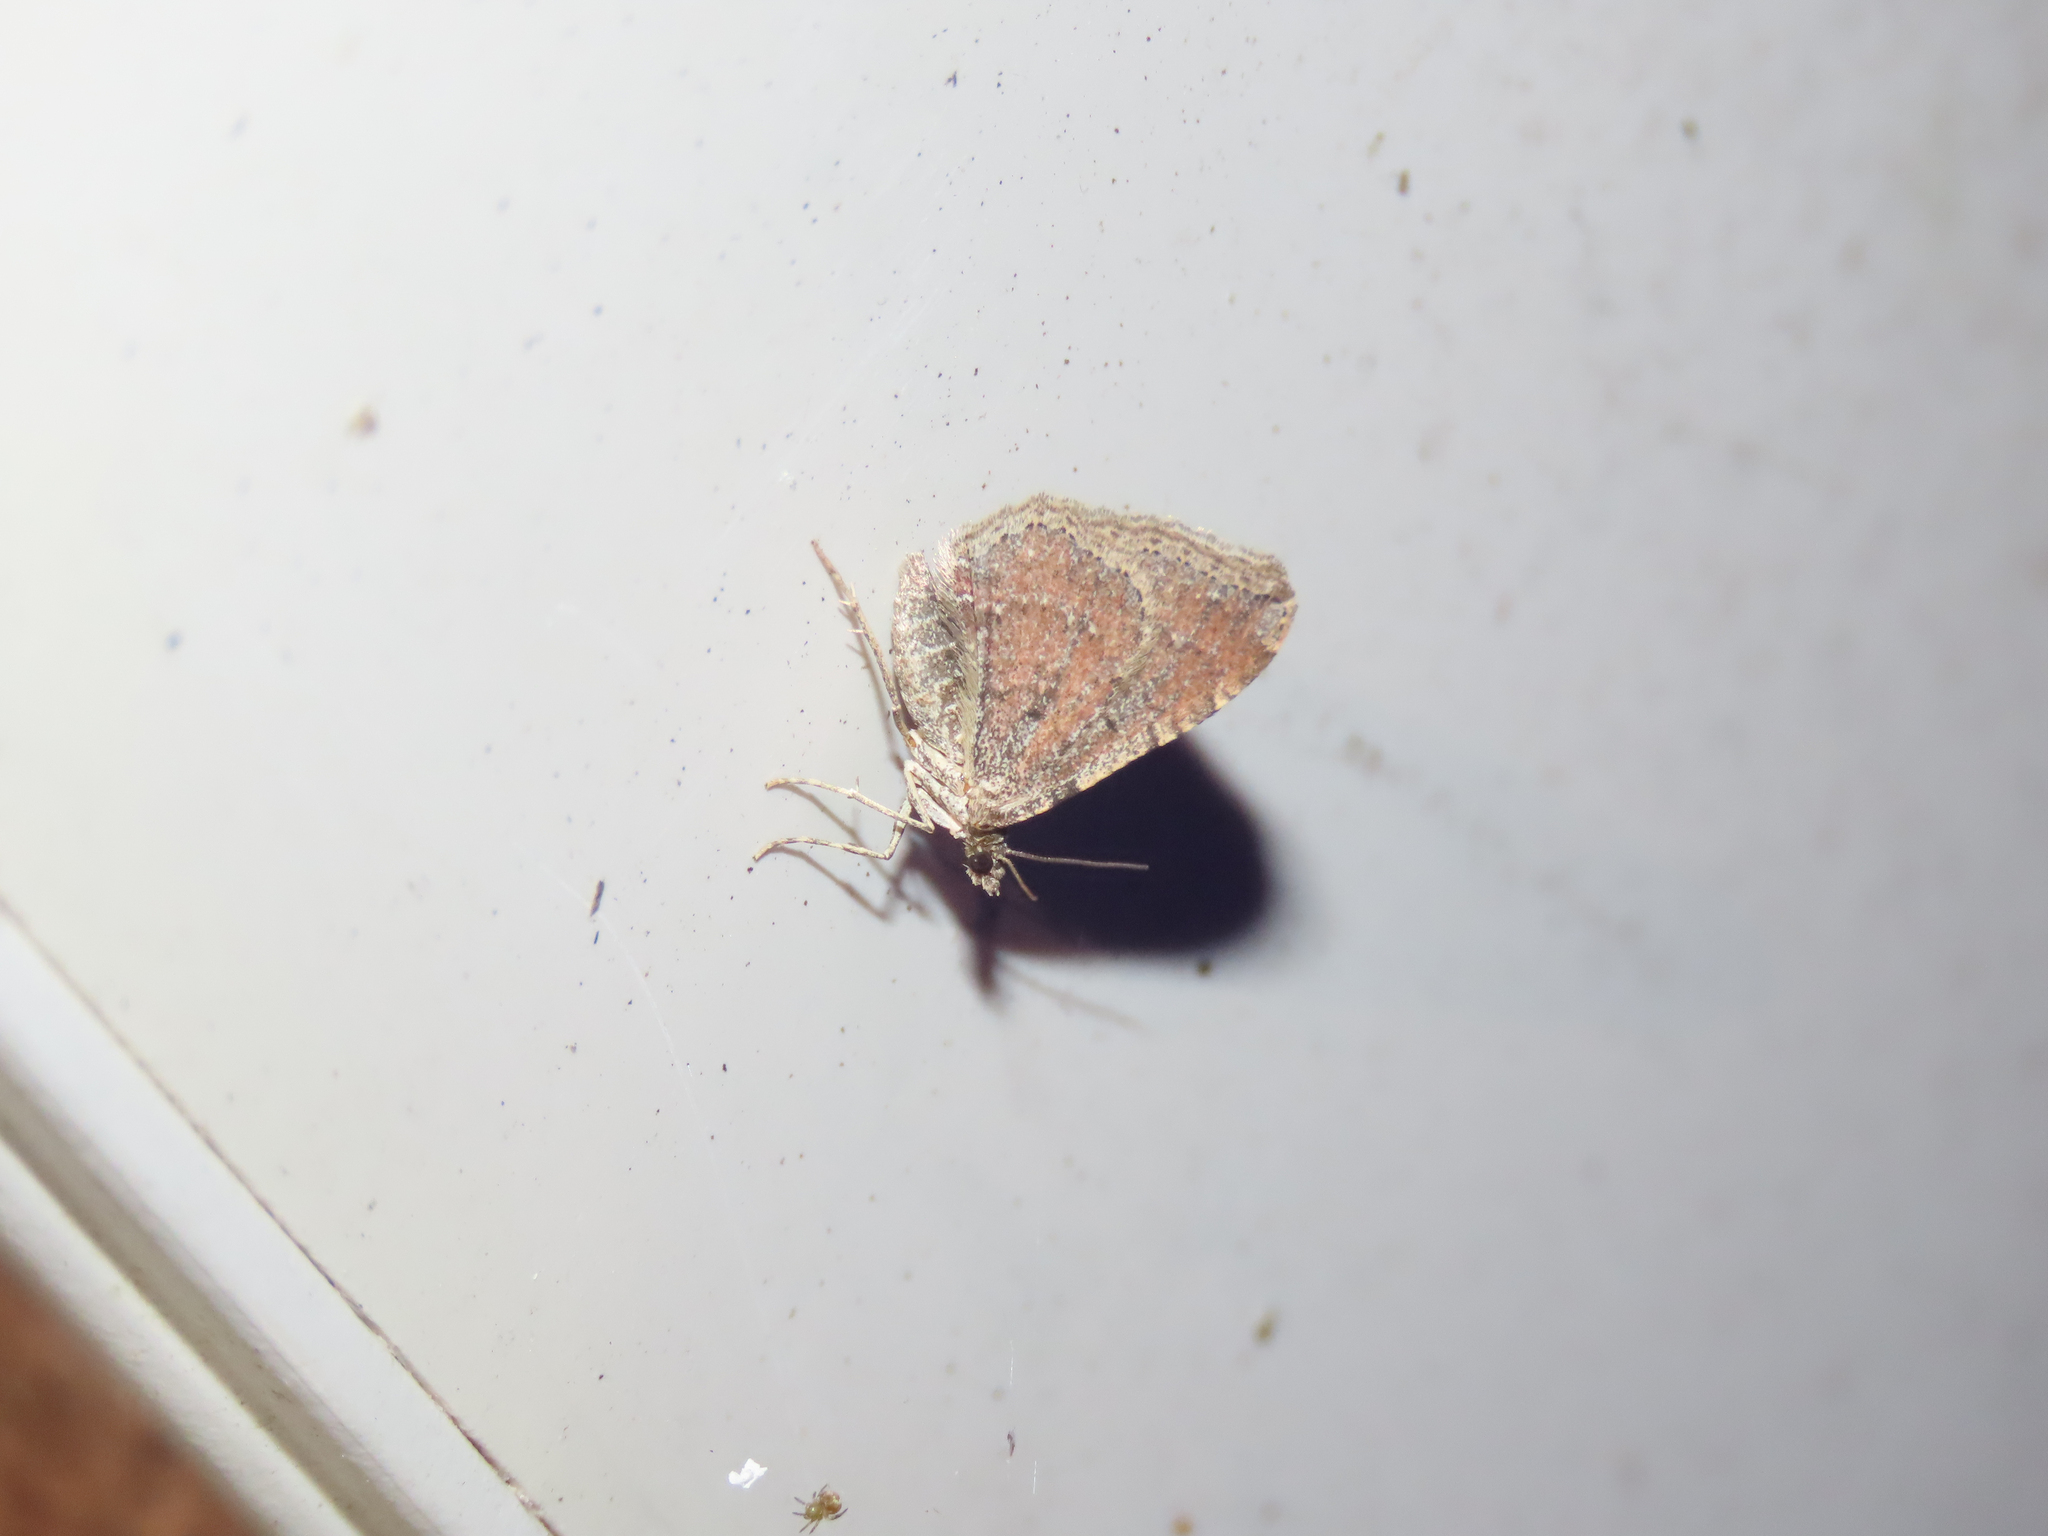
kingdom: Animalia
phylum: Arthropoda
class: Insecta
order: Lepidoptera
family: Geometridae
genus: Orthonama
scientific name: Orthonama obstipata
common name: The gem
